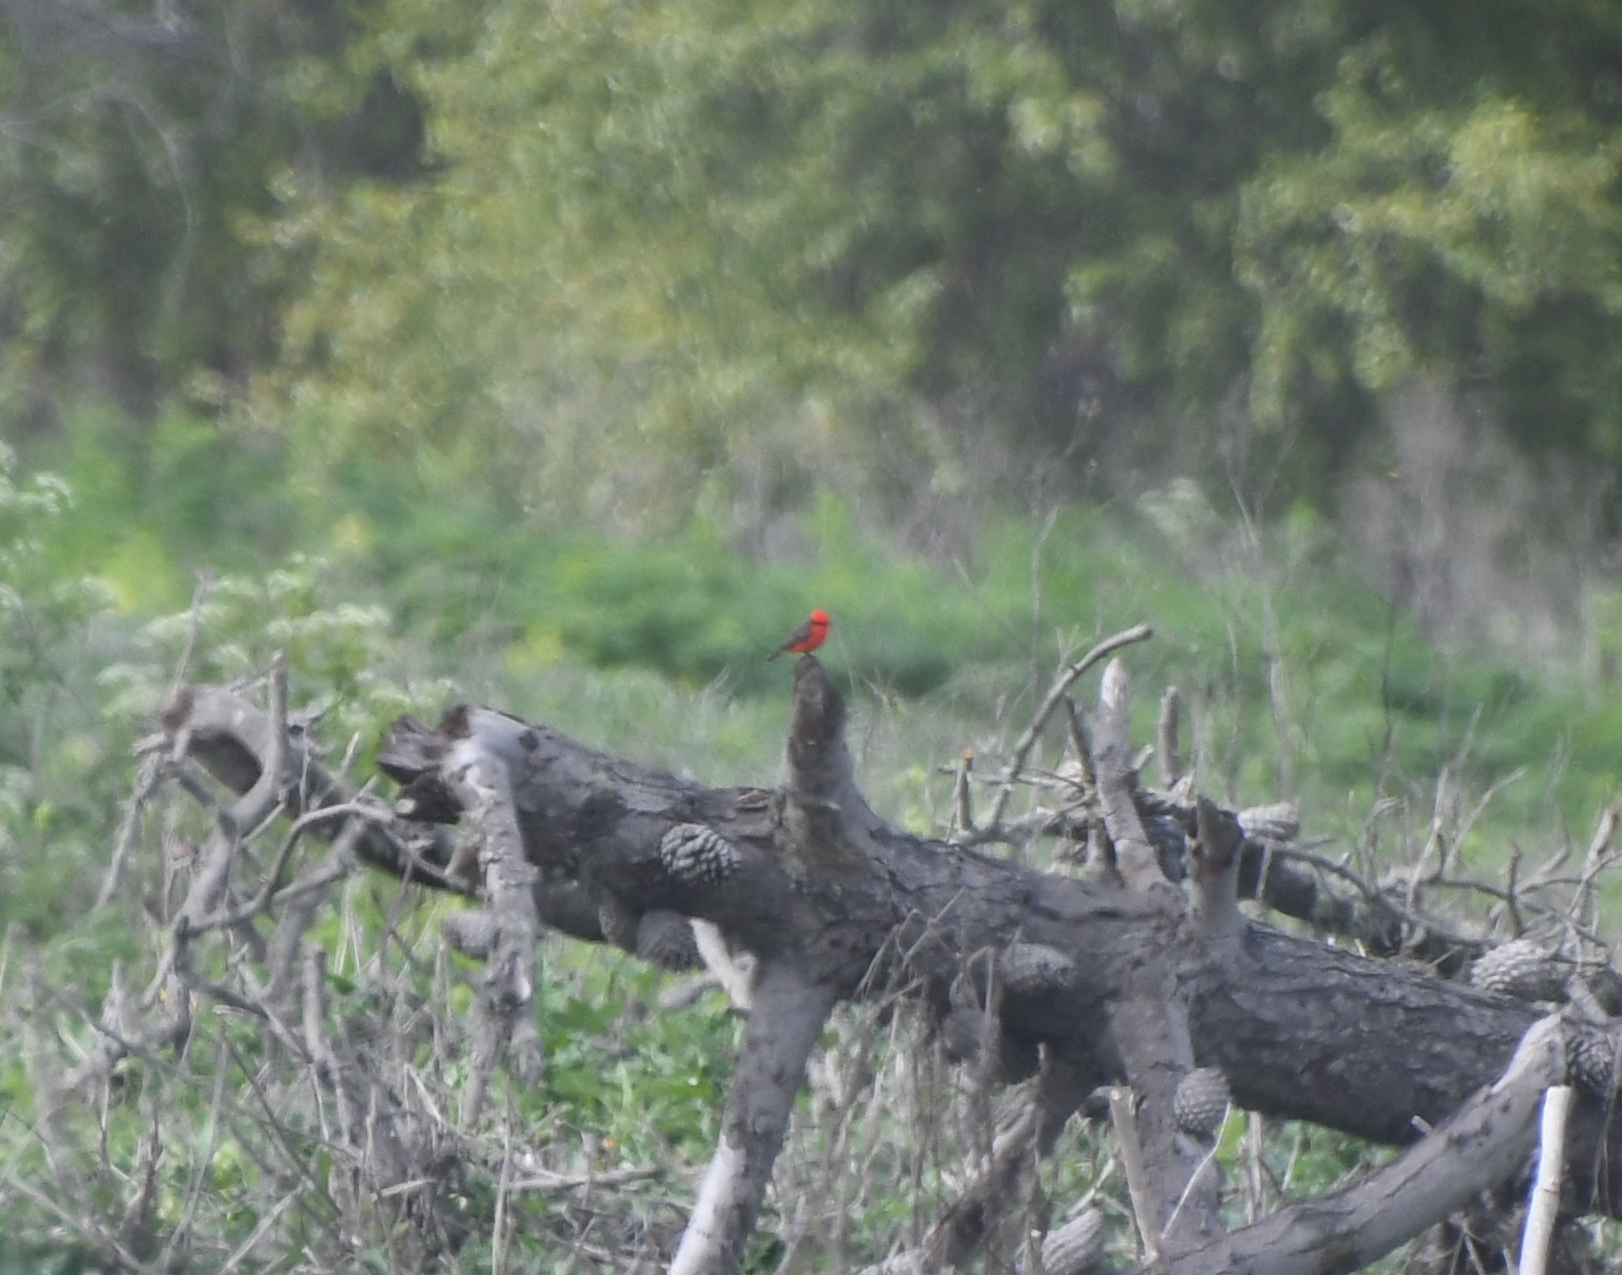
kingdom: Animalia
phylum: Chordata
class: Aves
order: Passeriformes
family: Tyrannidae
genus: Pyrocephalus
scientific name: Pyrocephalus rubinus
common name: Vermilion flycatcher
